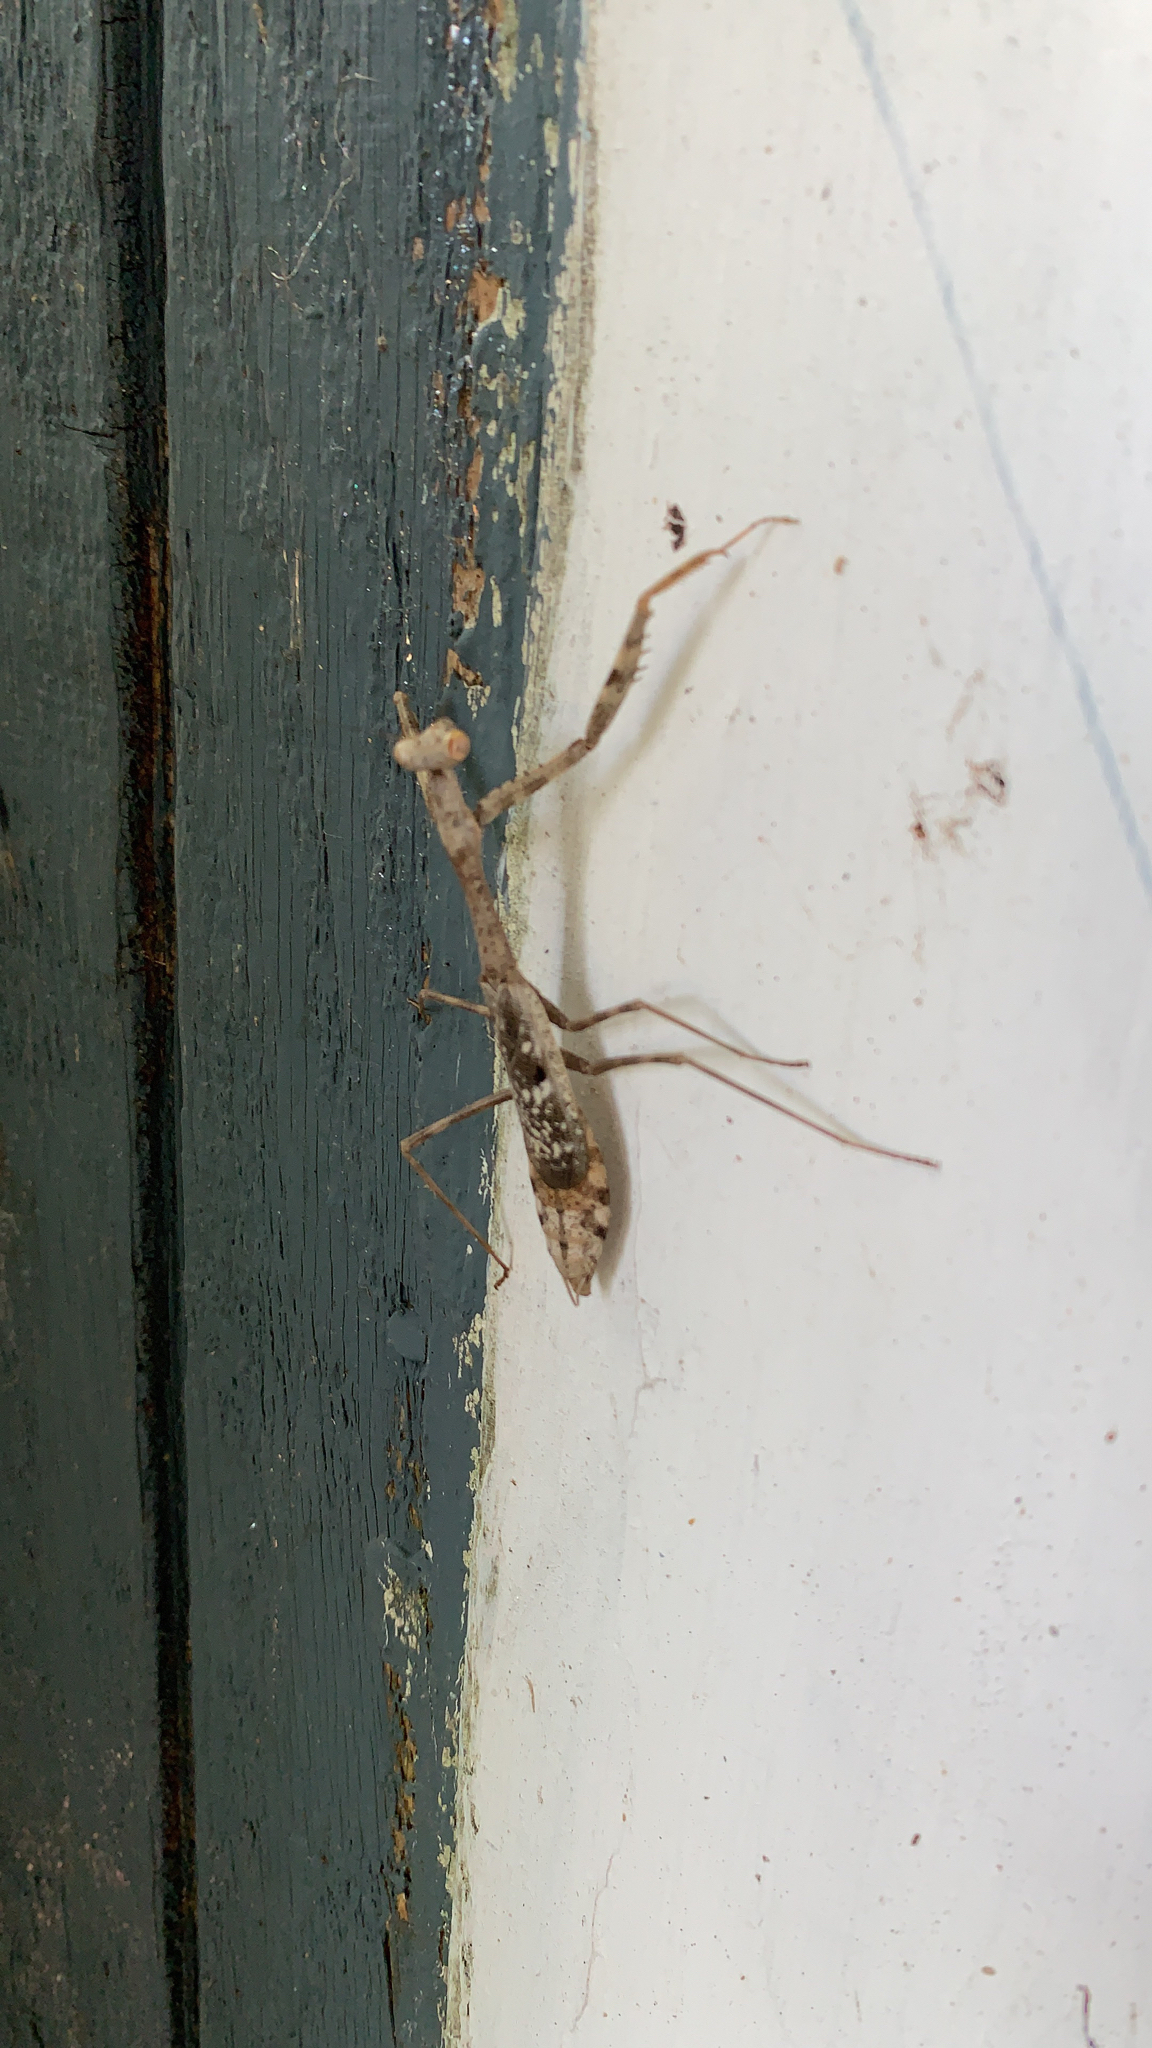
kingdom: Animalia
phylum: Arthropoda
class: Insecta
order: Mantodea
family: Mantidae
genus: Stagmomantis
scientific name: Stagmomantis carolina
